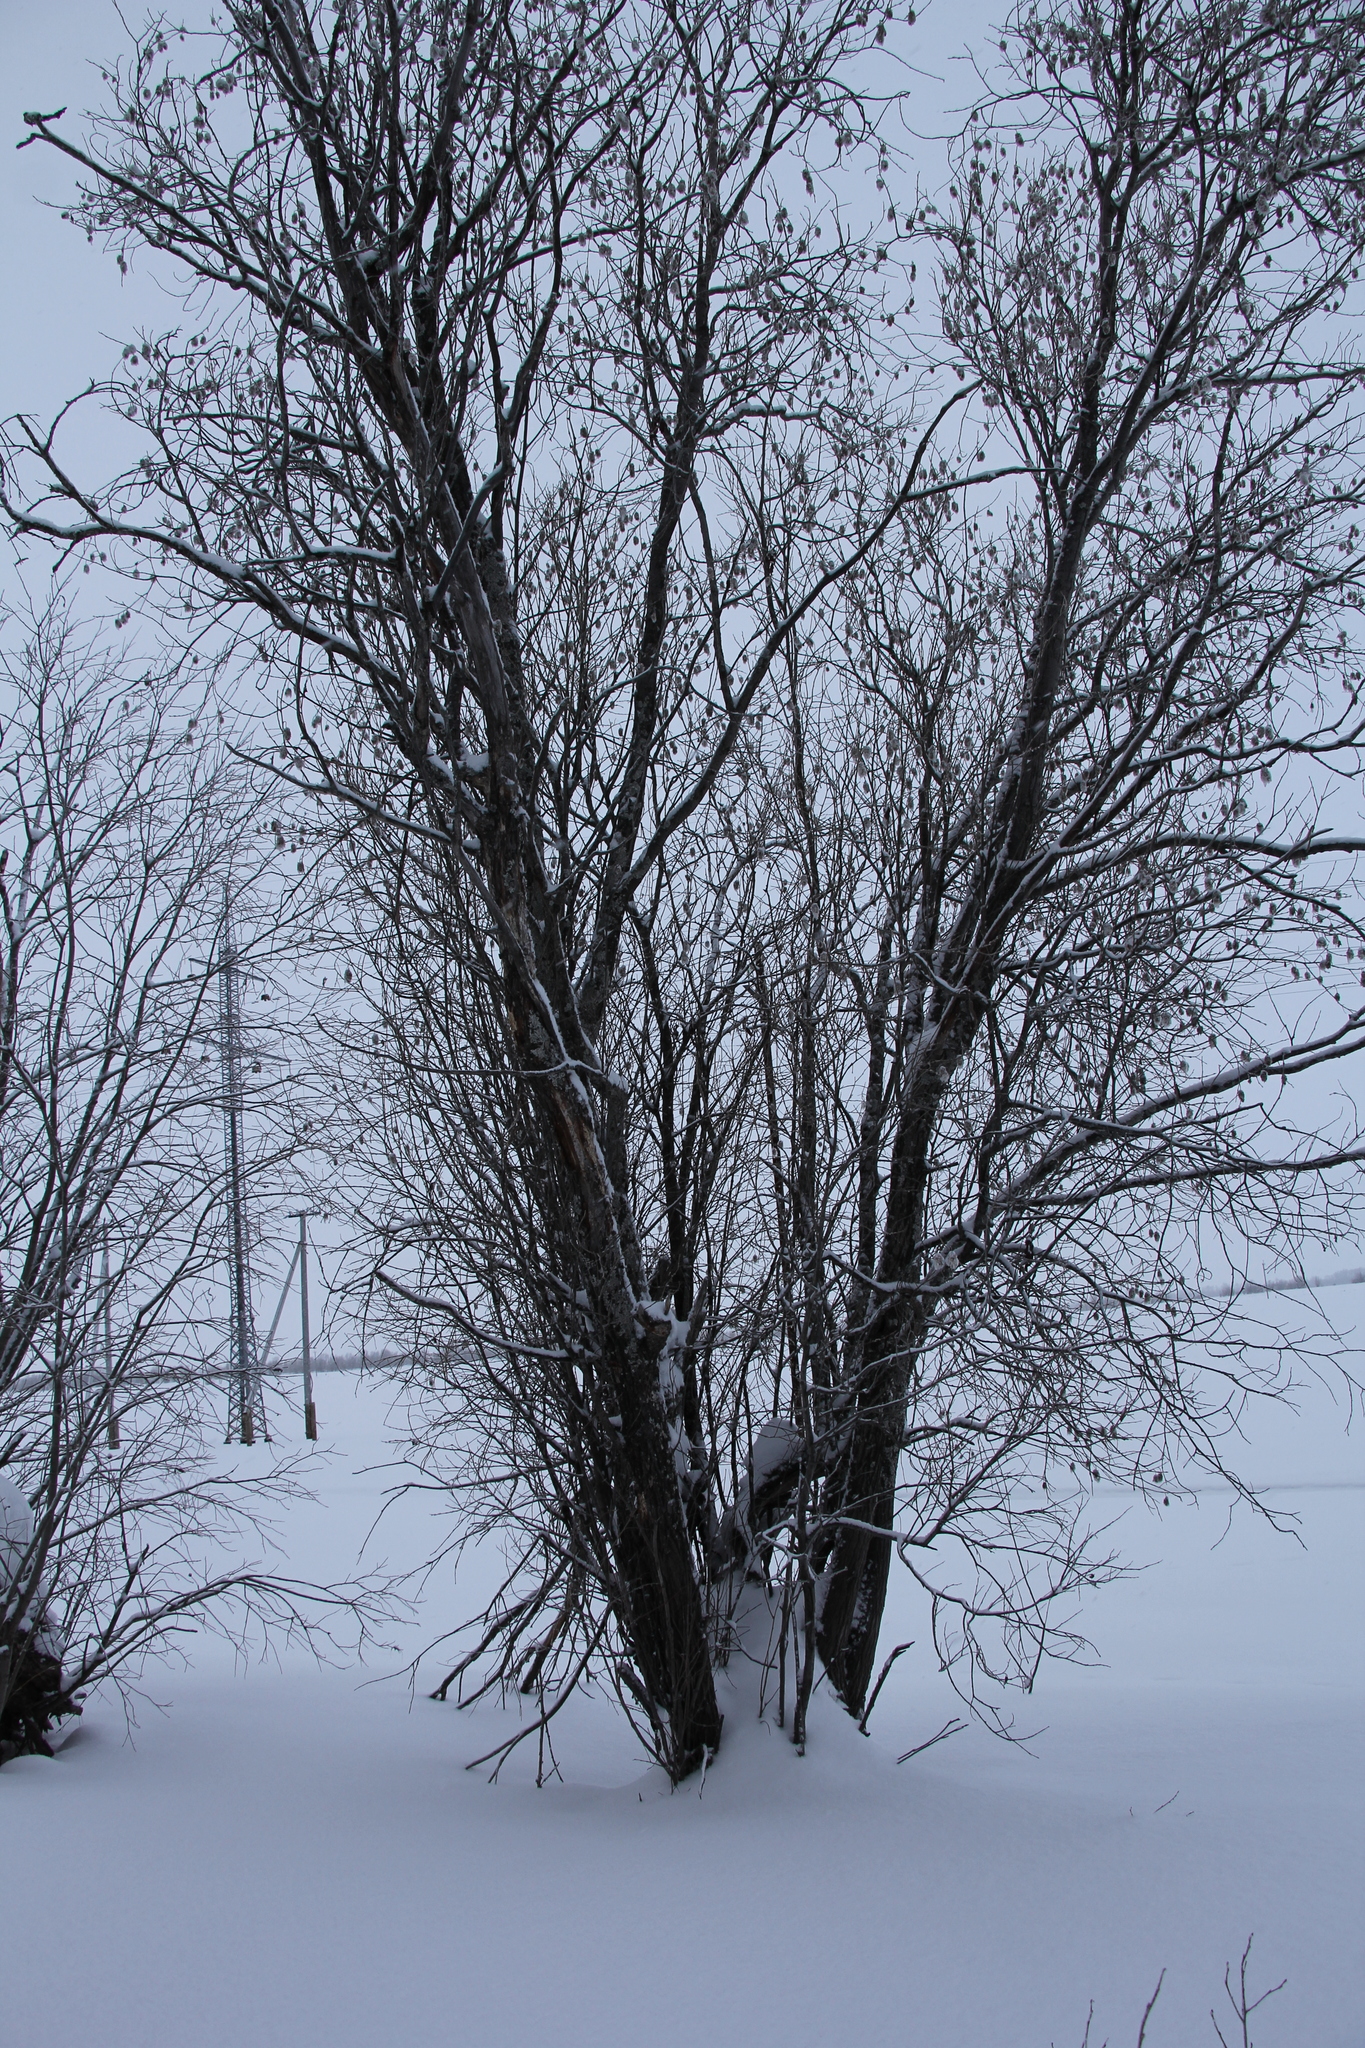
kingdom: Plantae
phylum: Tracheophyta
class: Magnoliopsida
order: Malpighiales
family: Salicaceae
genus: Salix
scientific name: Salix pentandra
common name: Bay willow
